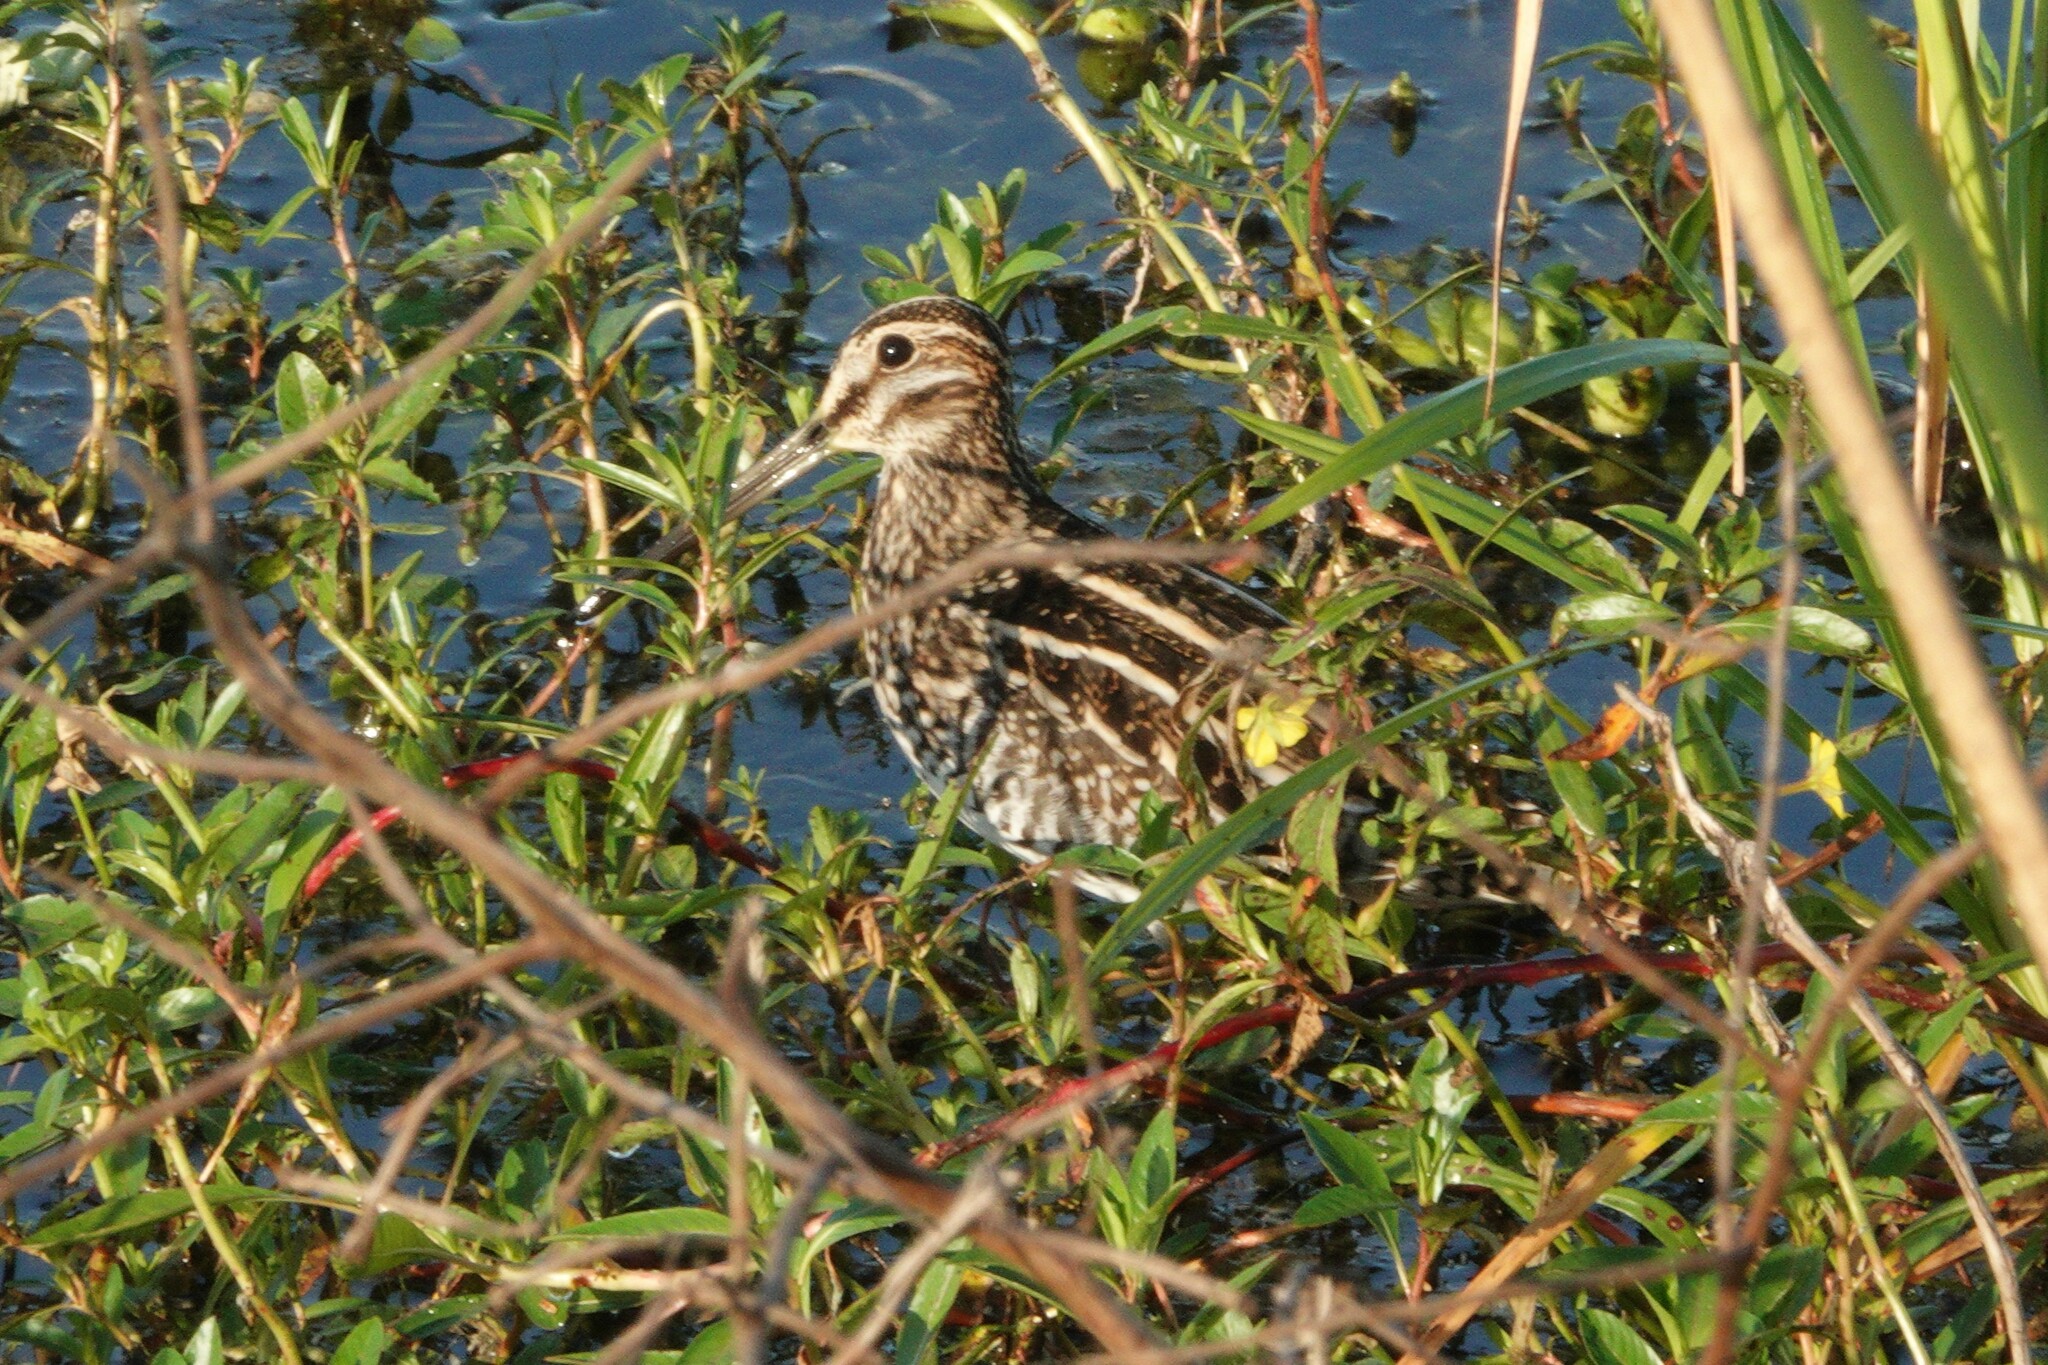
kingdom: Animalia
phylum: Chordata
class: Aves
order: Charadriiformes
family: Scolopacidae
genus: Gallinago
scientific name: Gallinago delicata
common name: Wilson's snipe
